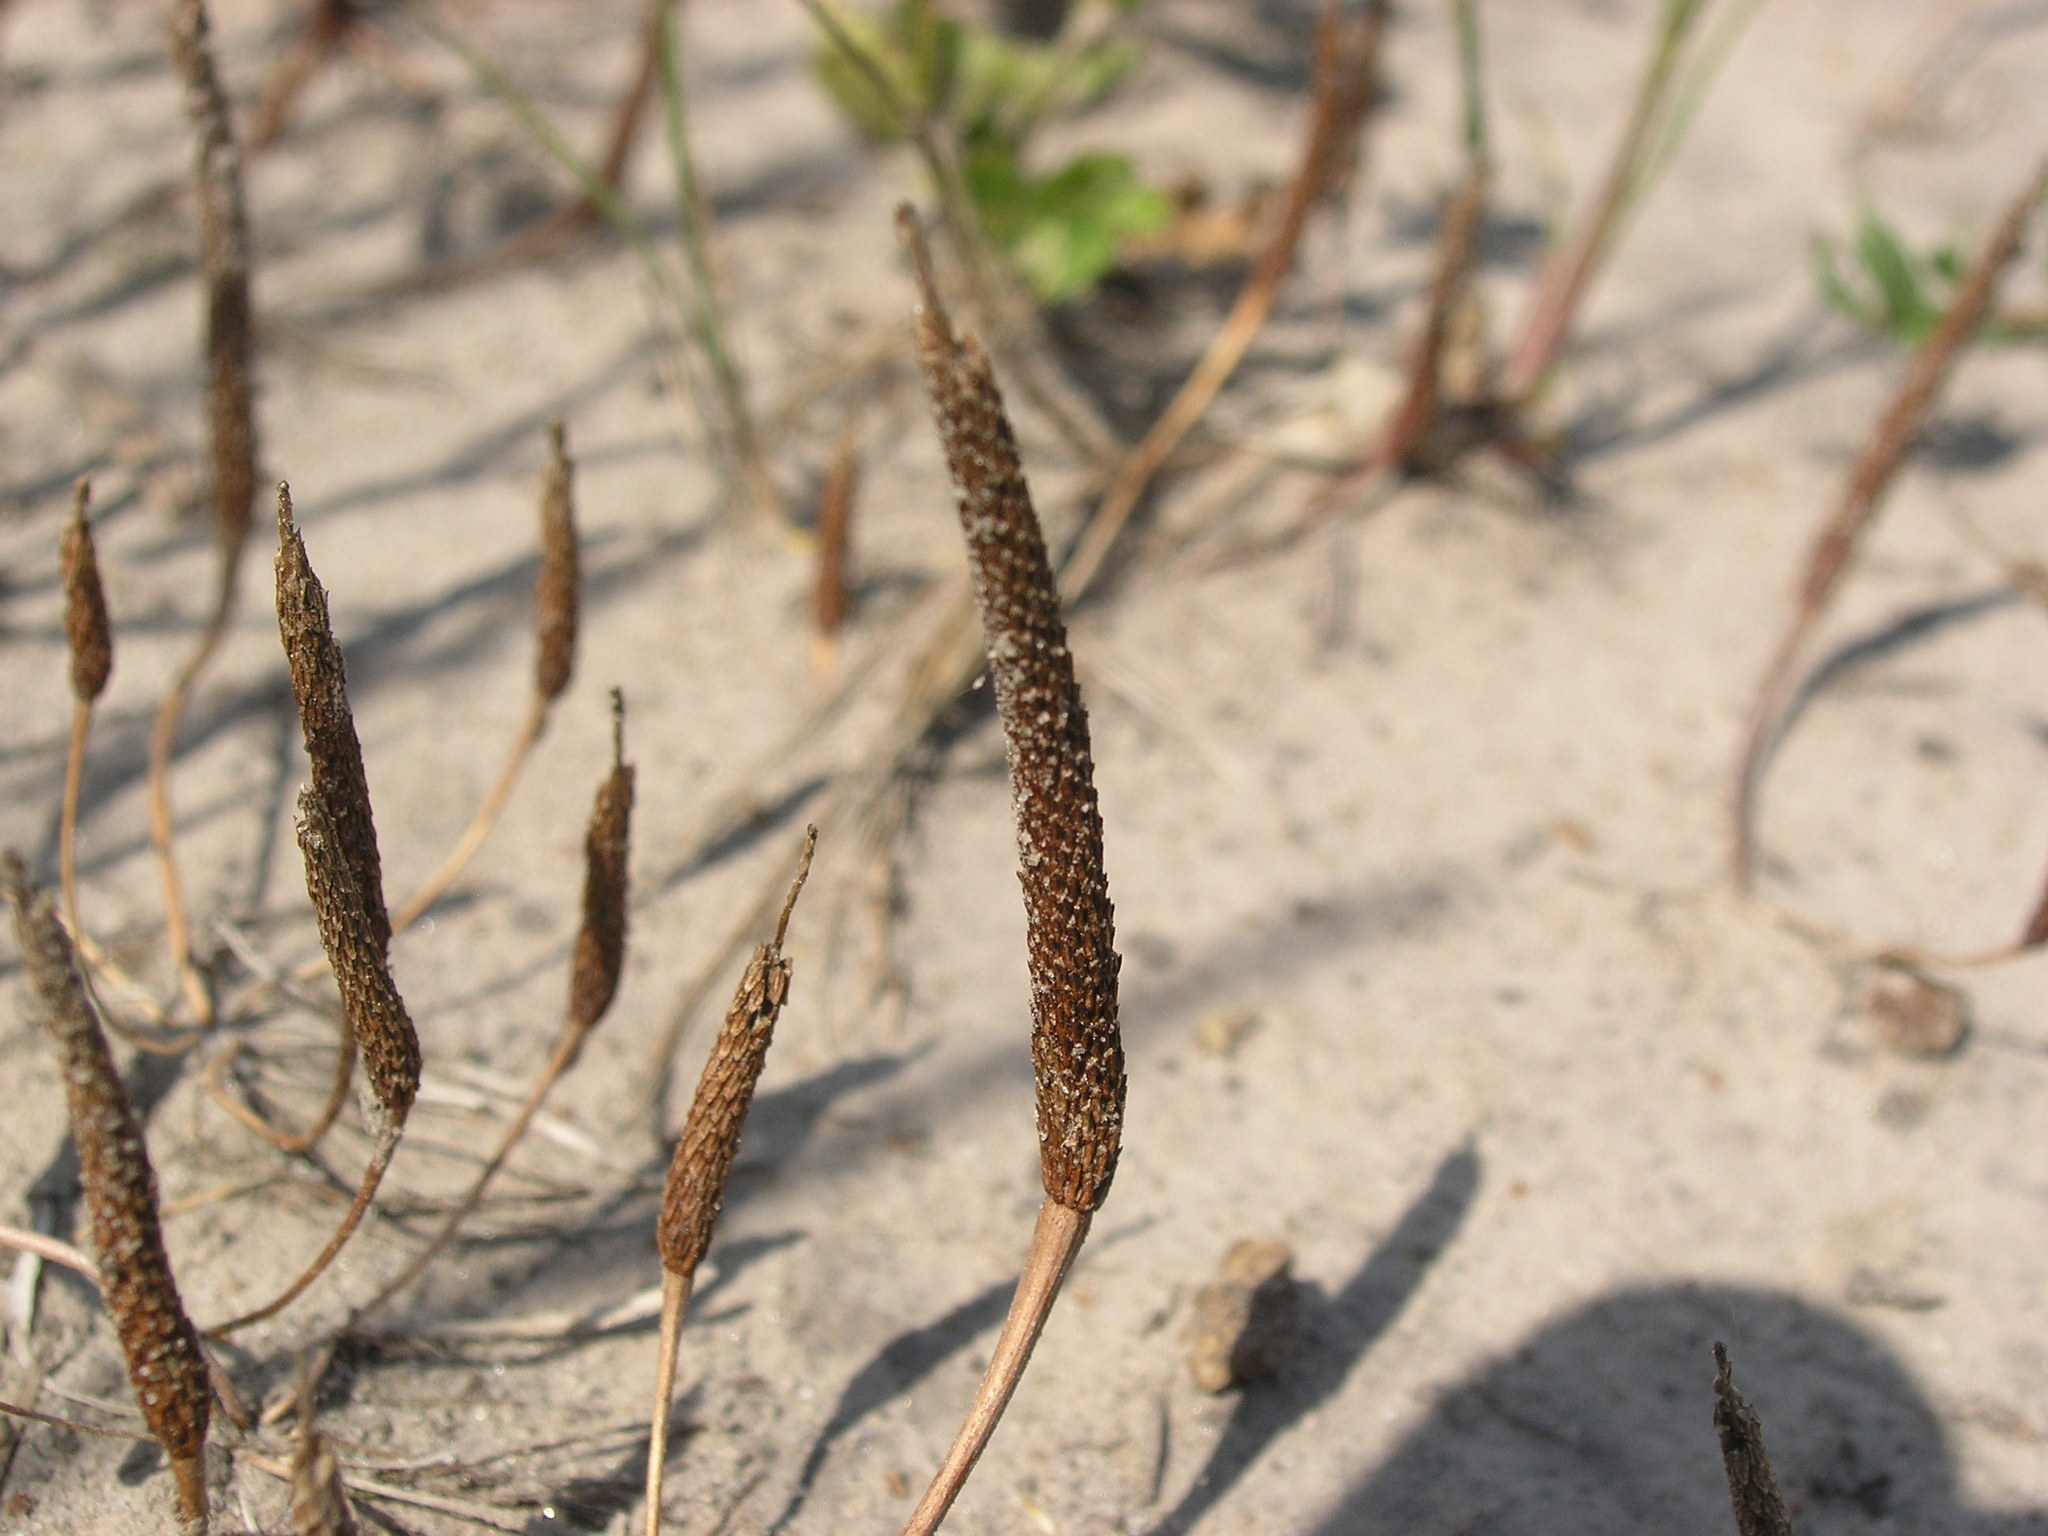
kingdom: Plantae
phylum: Tracheophyta
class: Magnoliopsida
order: Ranunculales
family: Ranunculaceae
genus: Myosurus
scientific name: Myosurus minimus
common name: Mousetail
